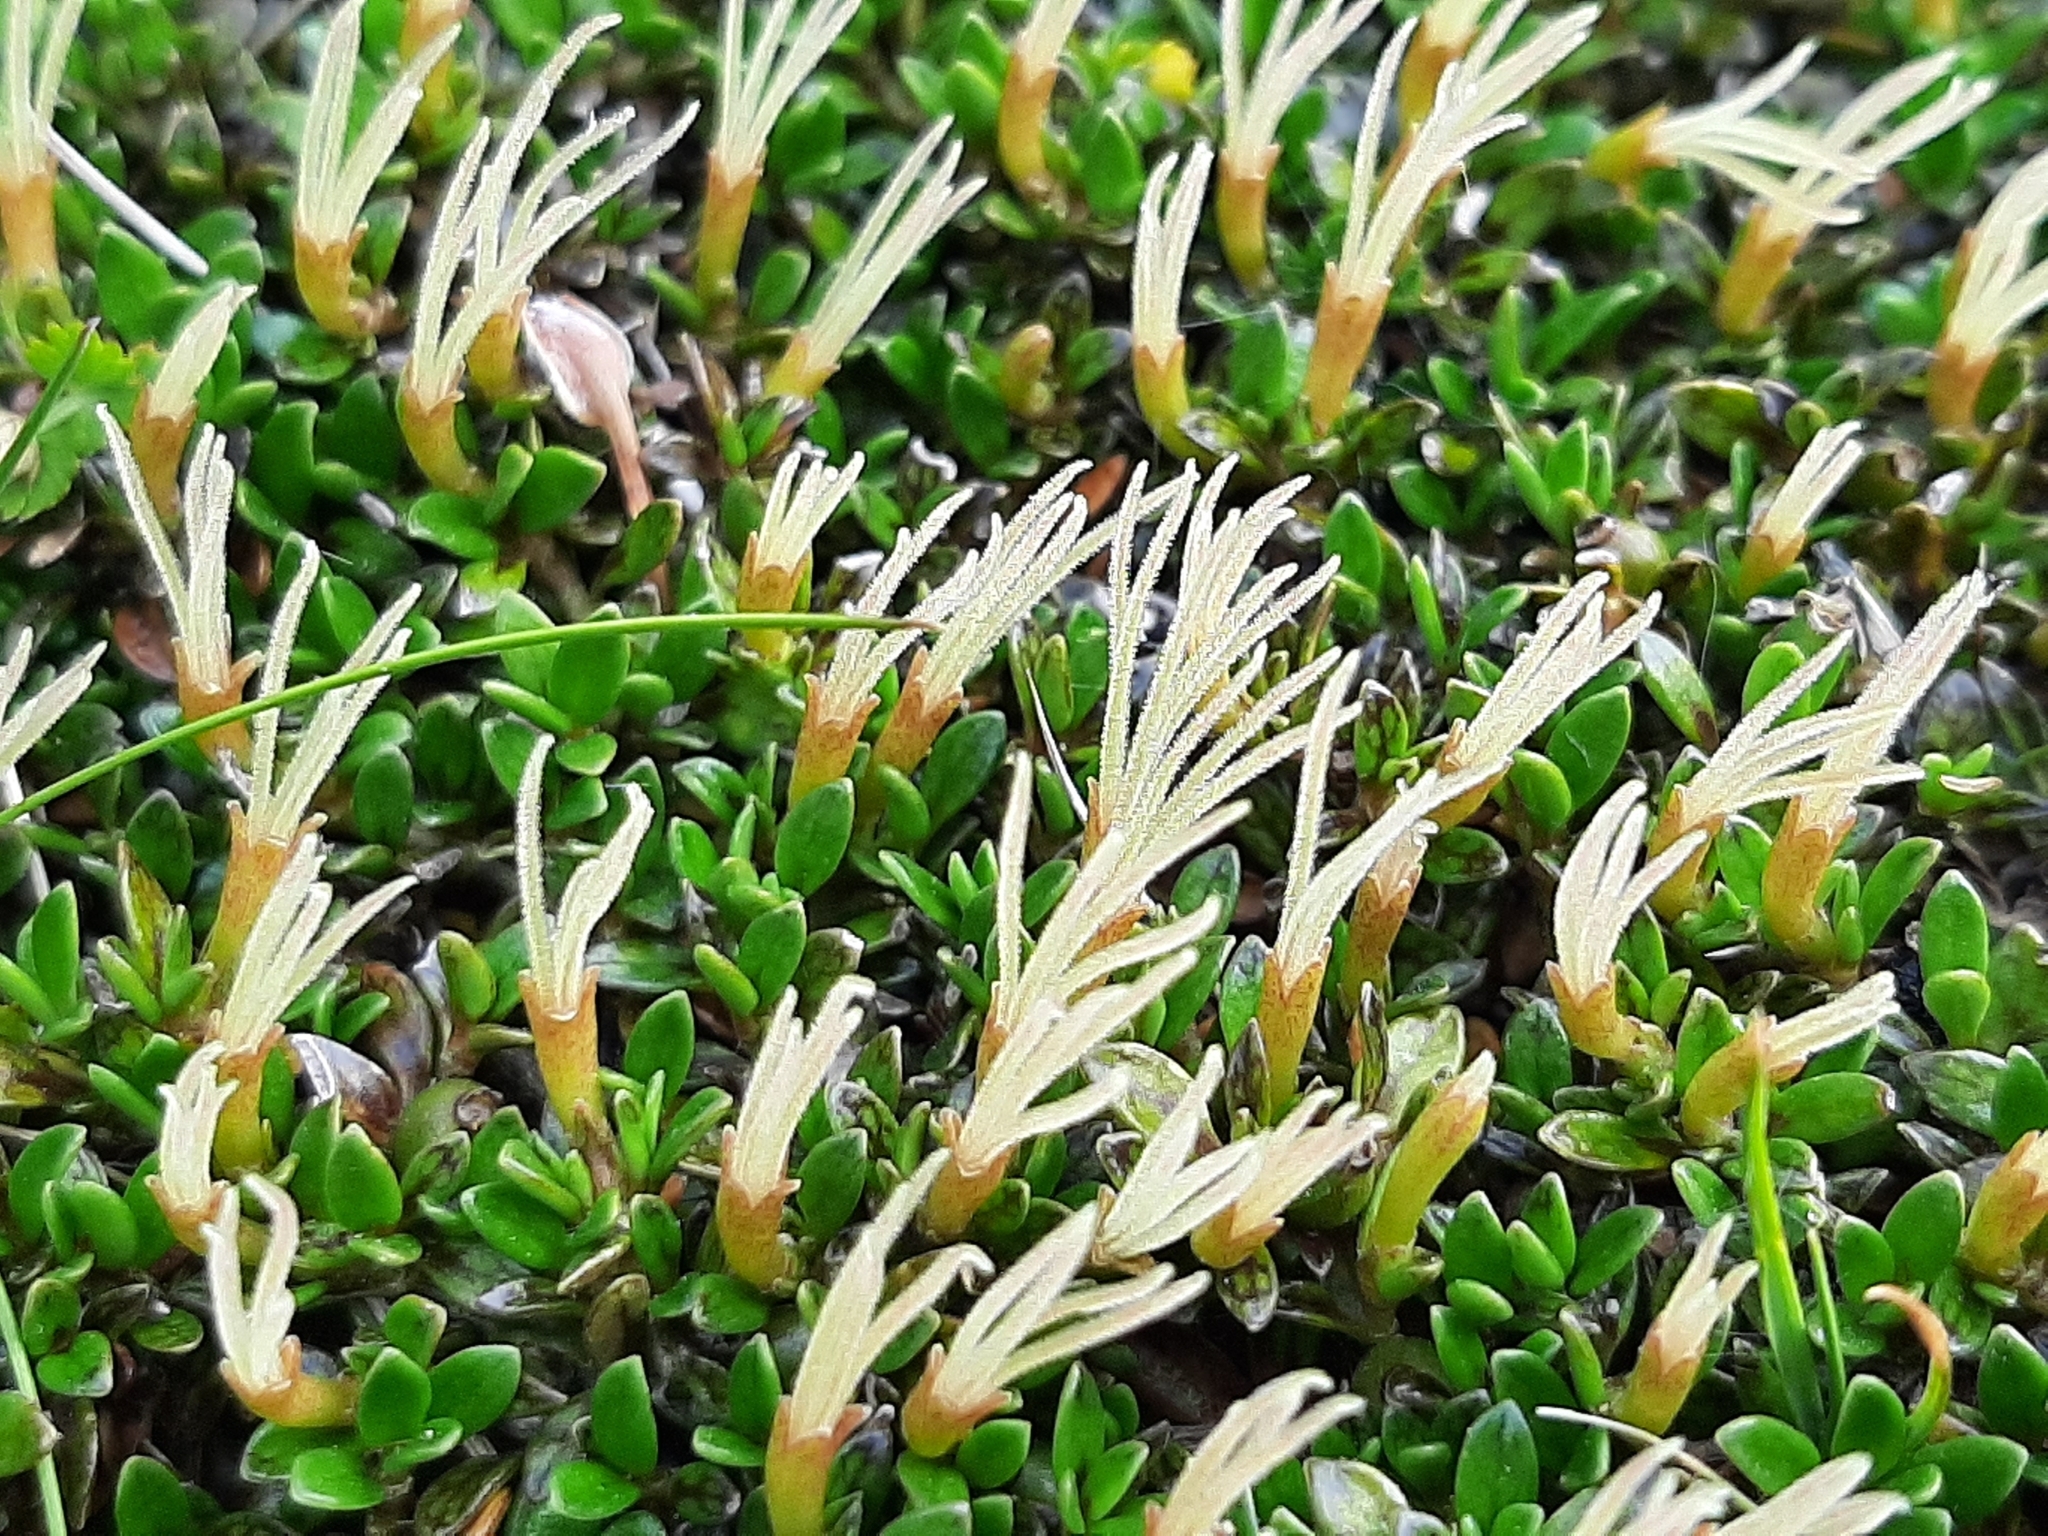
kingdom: Plantae
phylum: Tracheophyta
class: Magnoliopsida
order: Gentianales
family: Rubiaceae
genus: Coprosma
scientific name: Coprosma perpusilla
